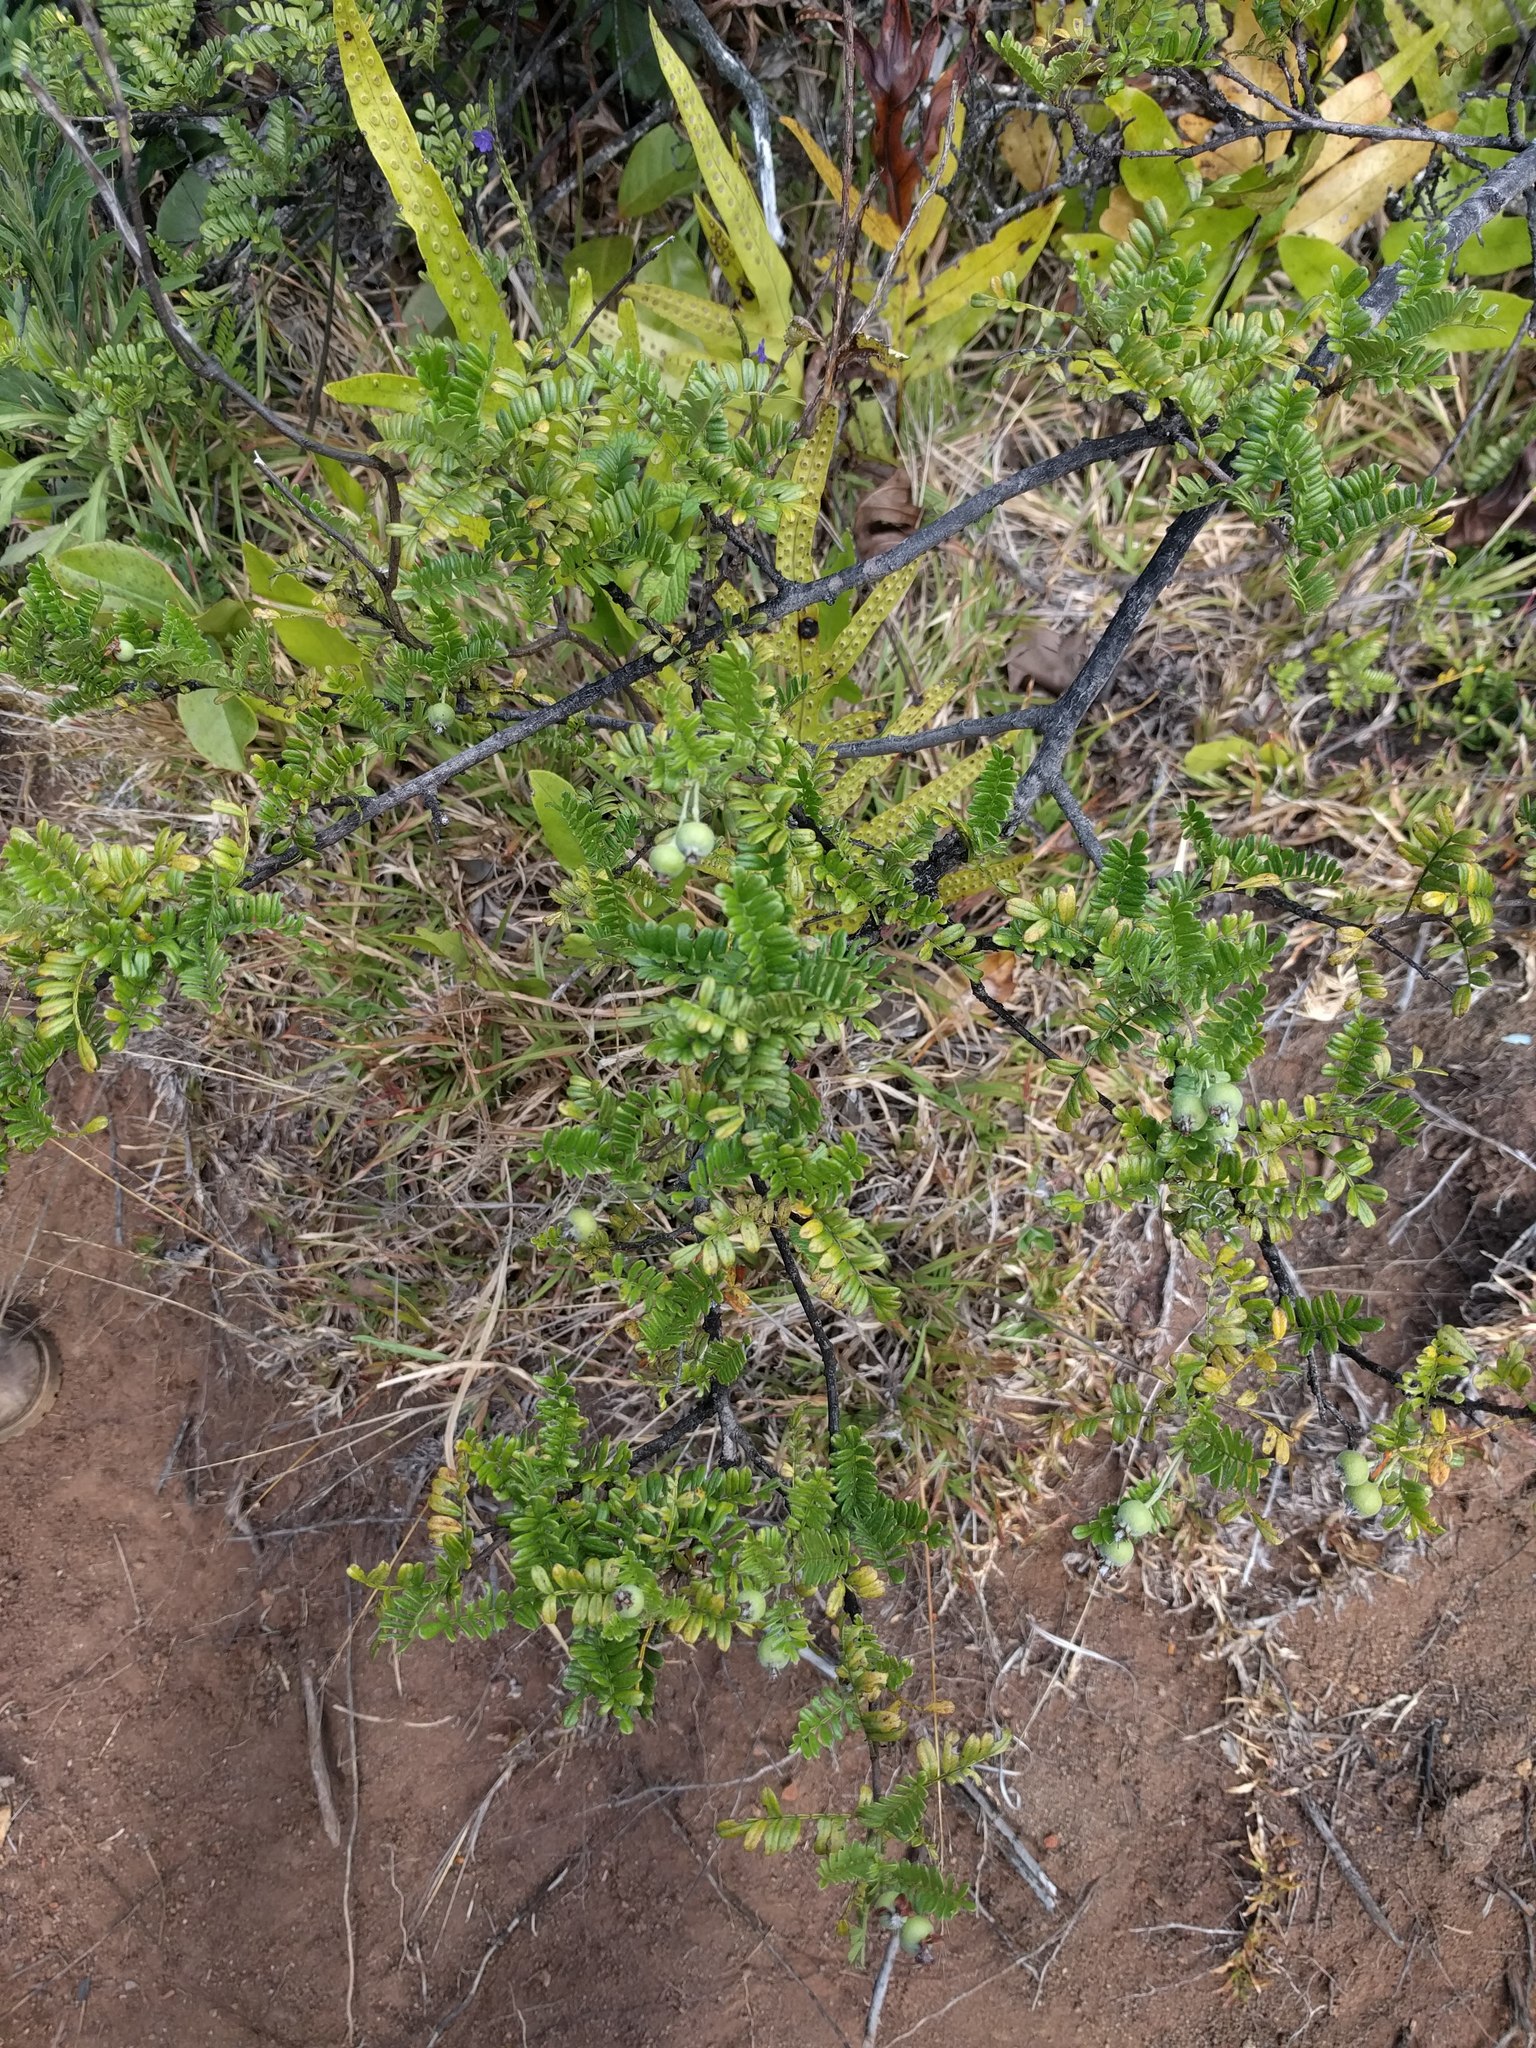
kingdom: Plantae
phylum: Tracheophyta
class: Magnoliopsida
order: Rosales
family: Rosaceae
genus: Osteomeles
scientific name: Osteomeles anthyllidifolia
